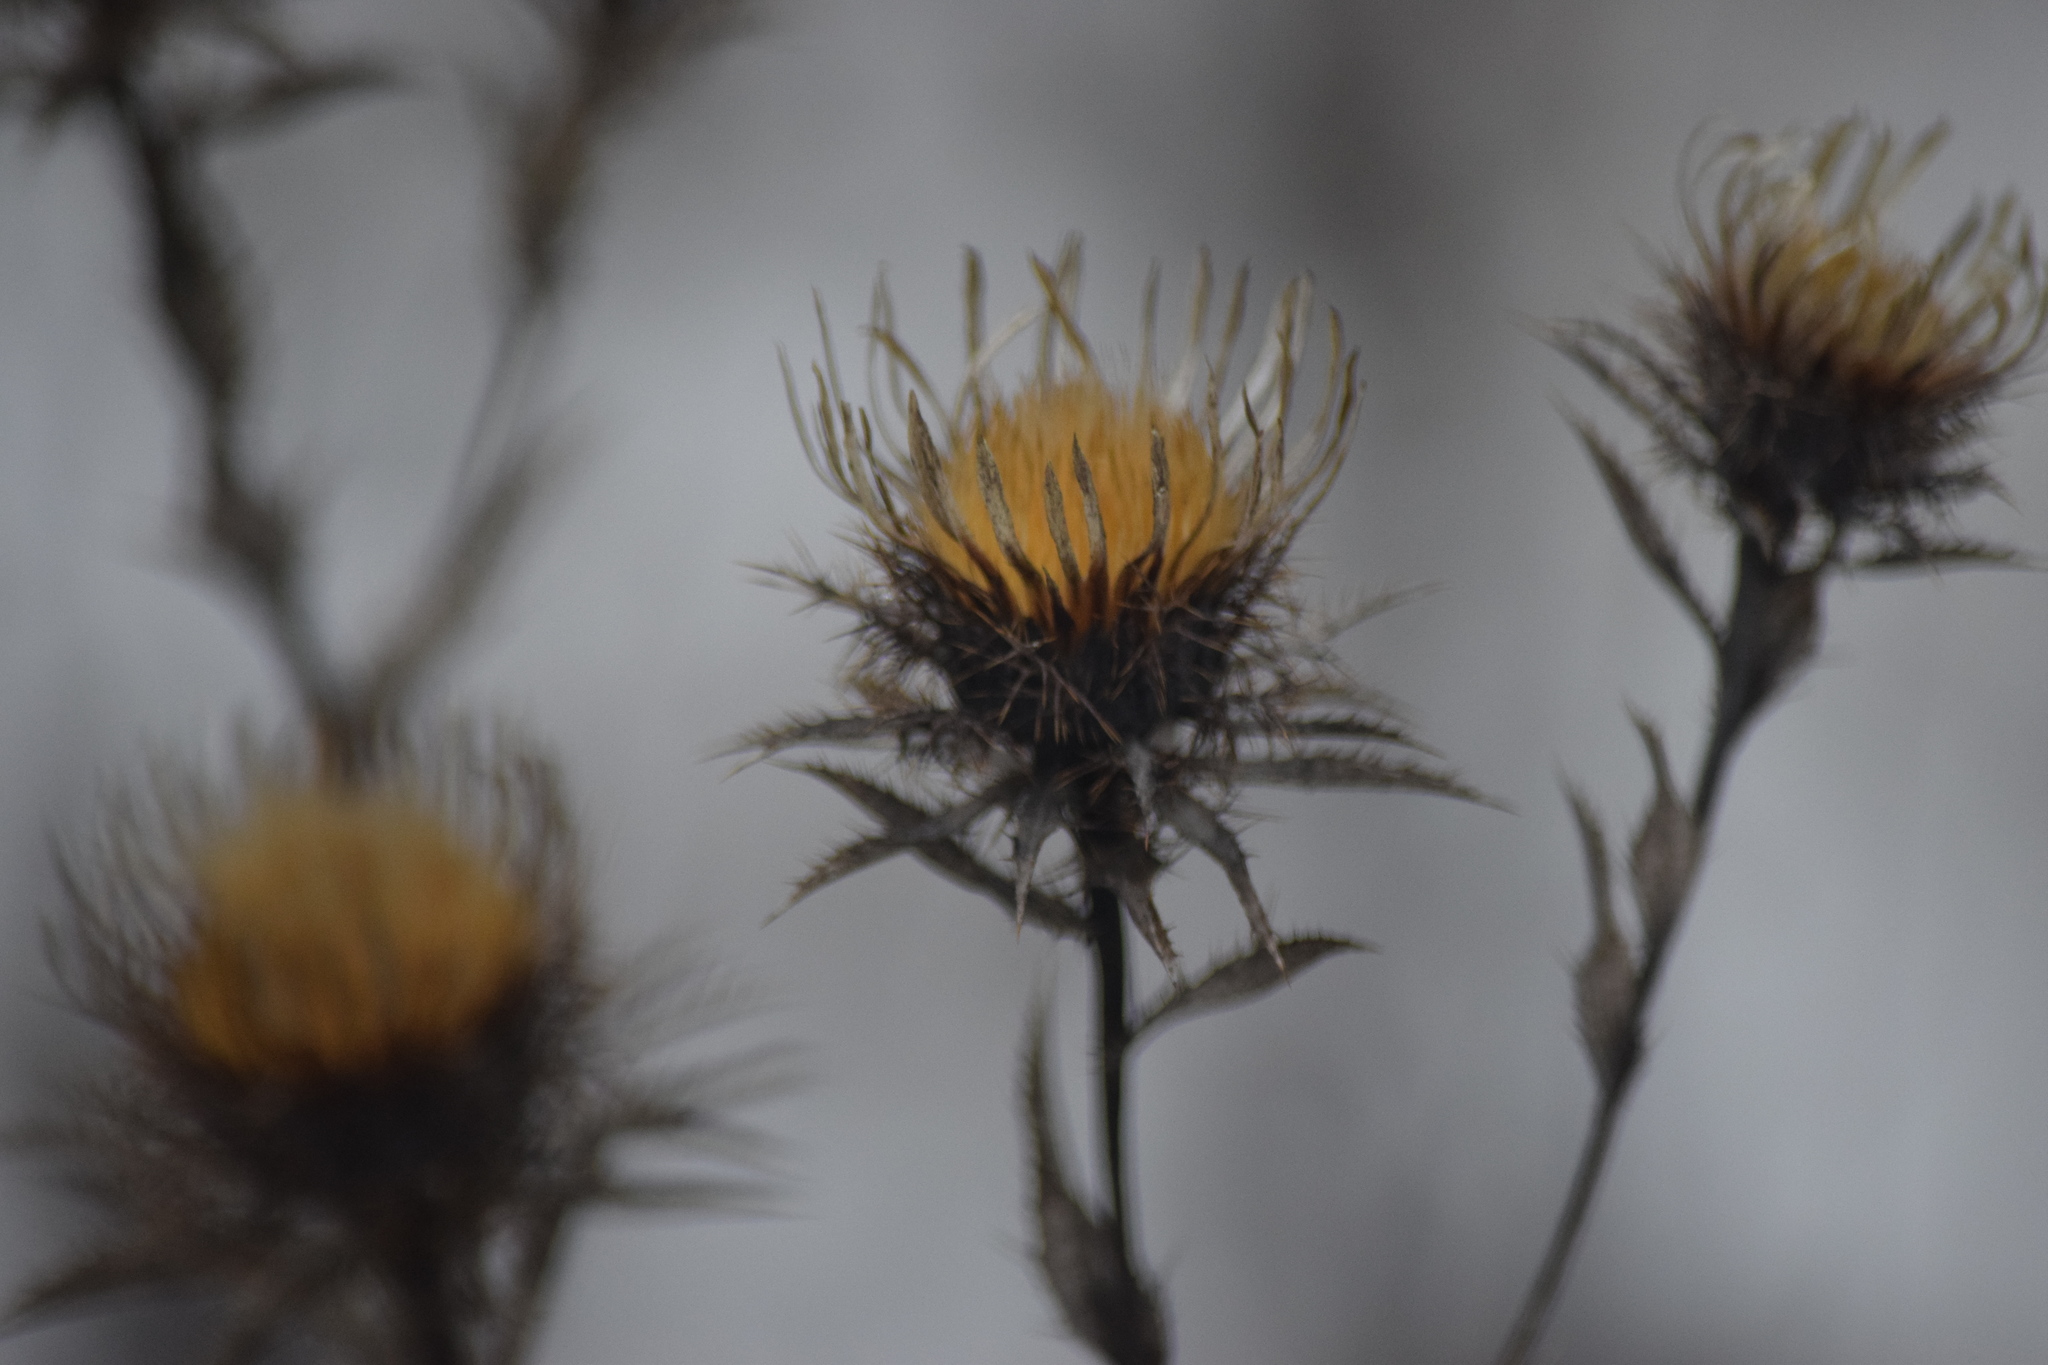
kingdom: Plantae
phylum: Tracheophyta
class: Magnoliopsida
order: Asterales
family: Asteraceae
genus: Carlina
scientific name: Carlina biebersteinii
